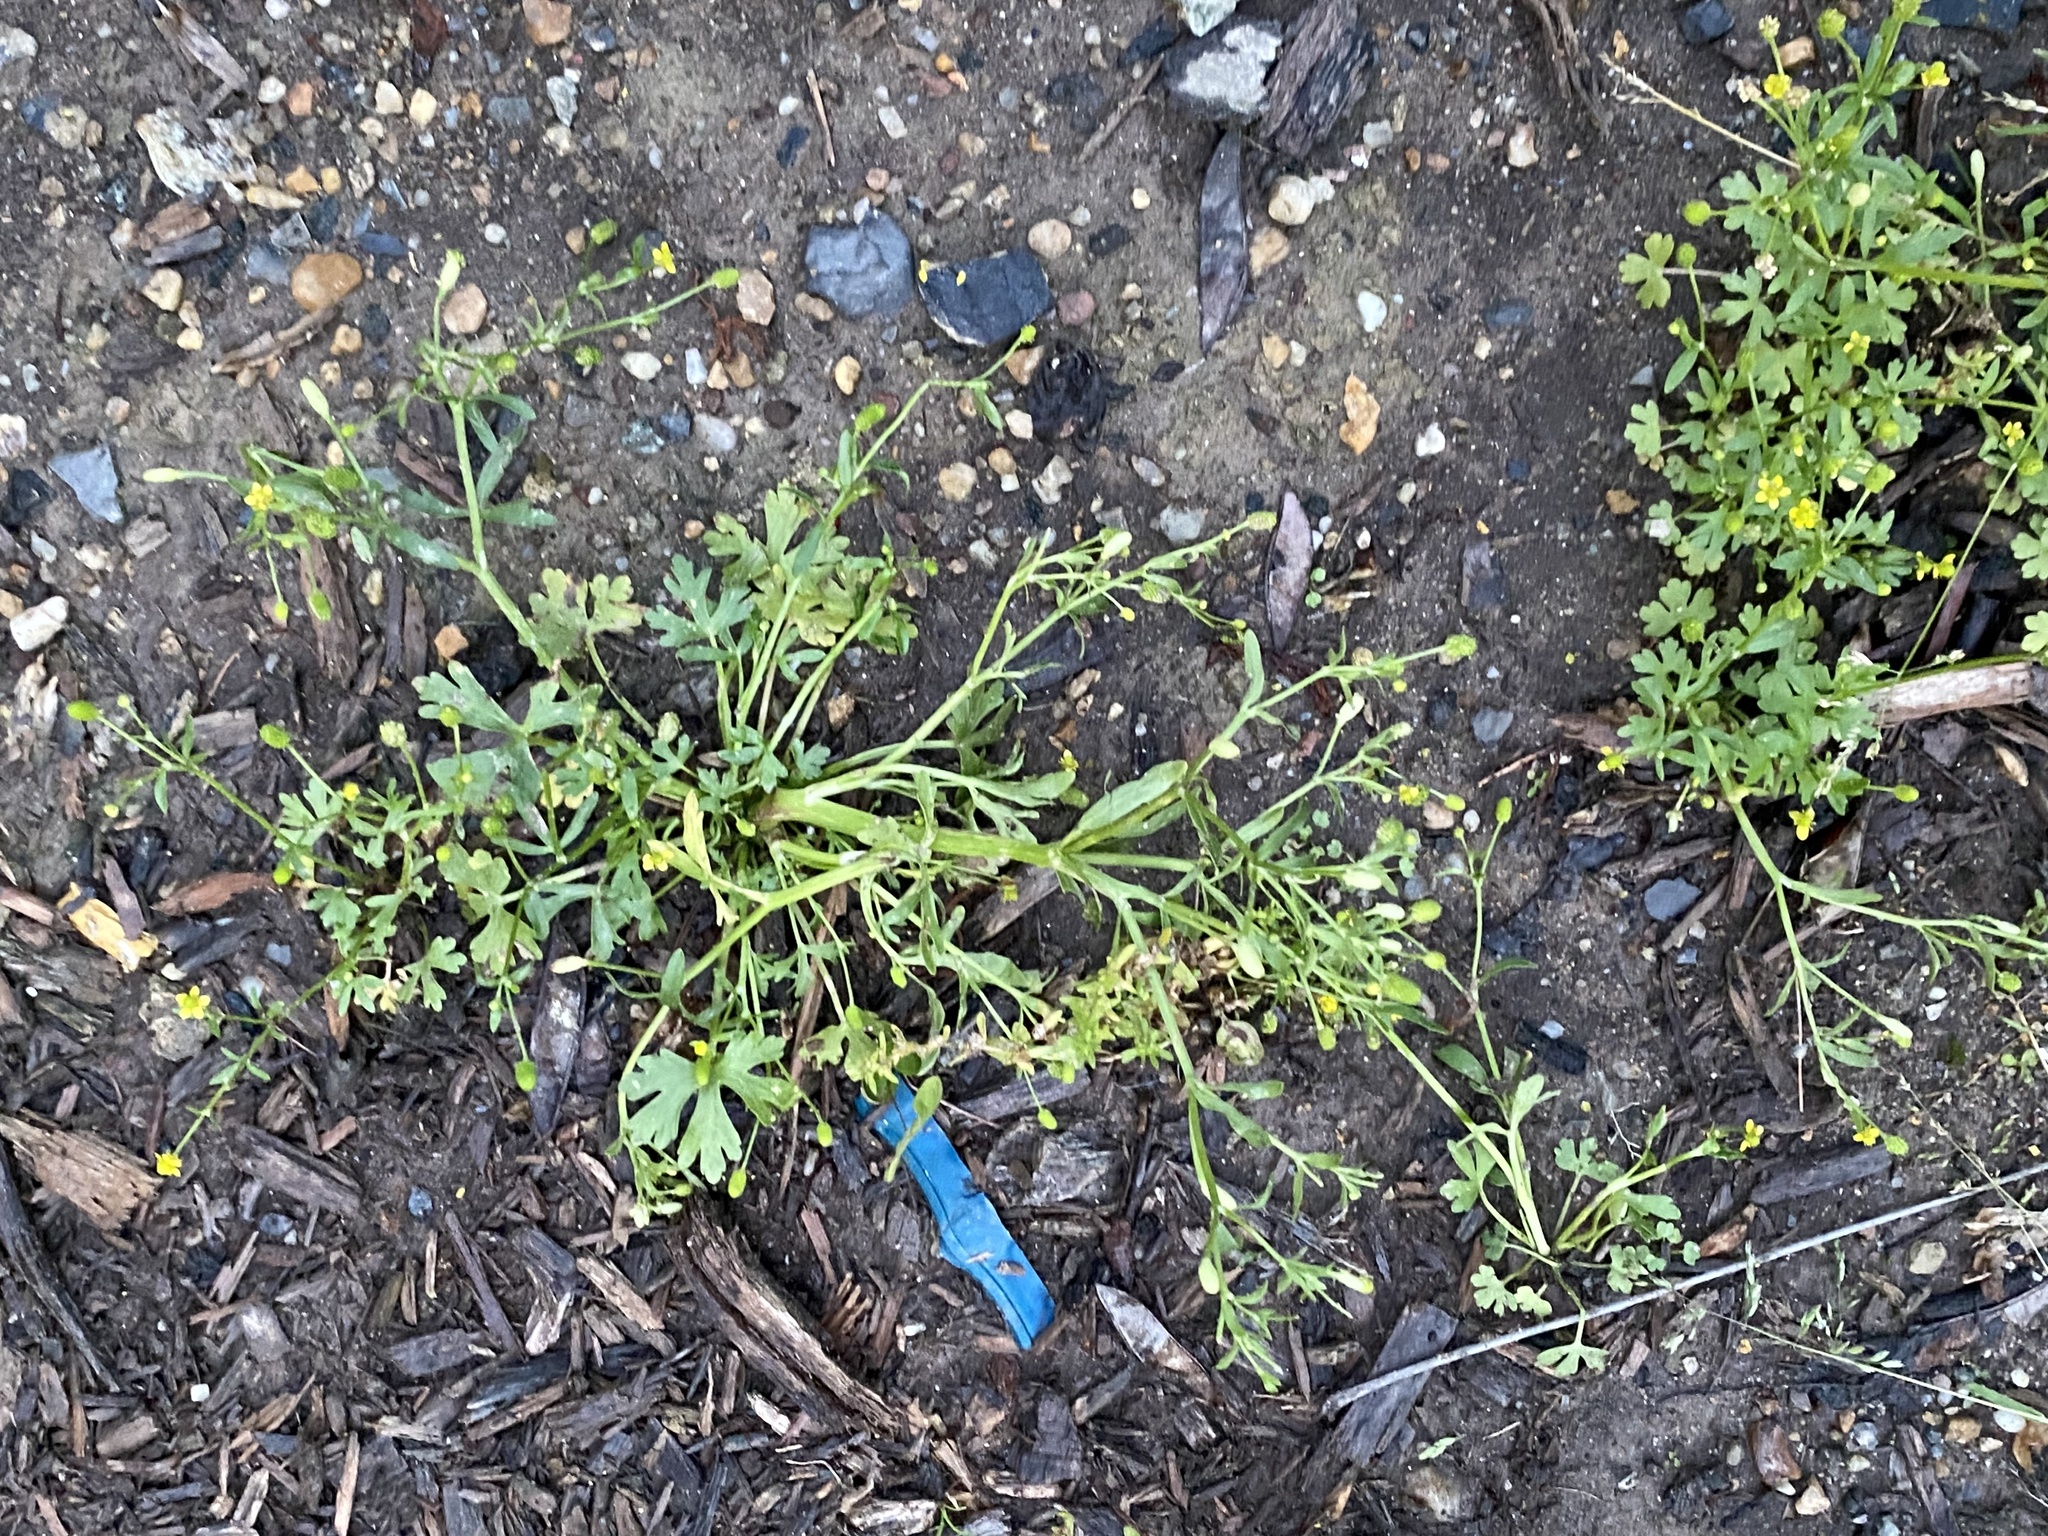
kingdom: Plantae
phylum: Tracheophyta
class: Magnoliopsida
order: Ranunculales
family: Ranunculaceae
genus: Ranunculus
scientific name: Ranunculus sceleratus
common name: Celery-leaved buttercup
